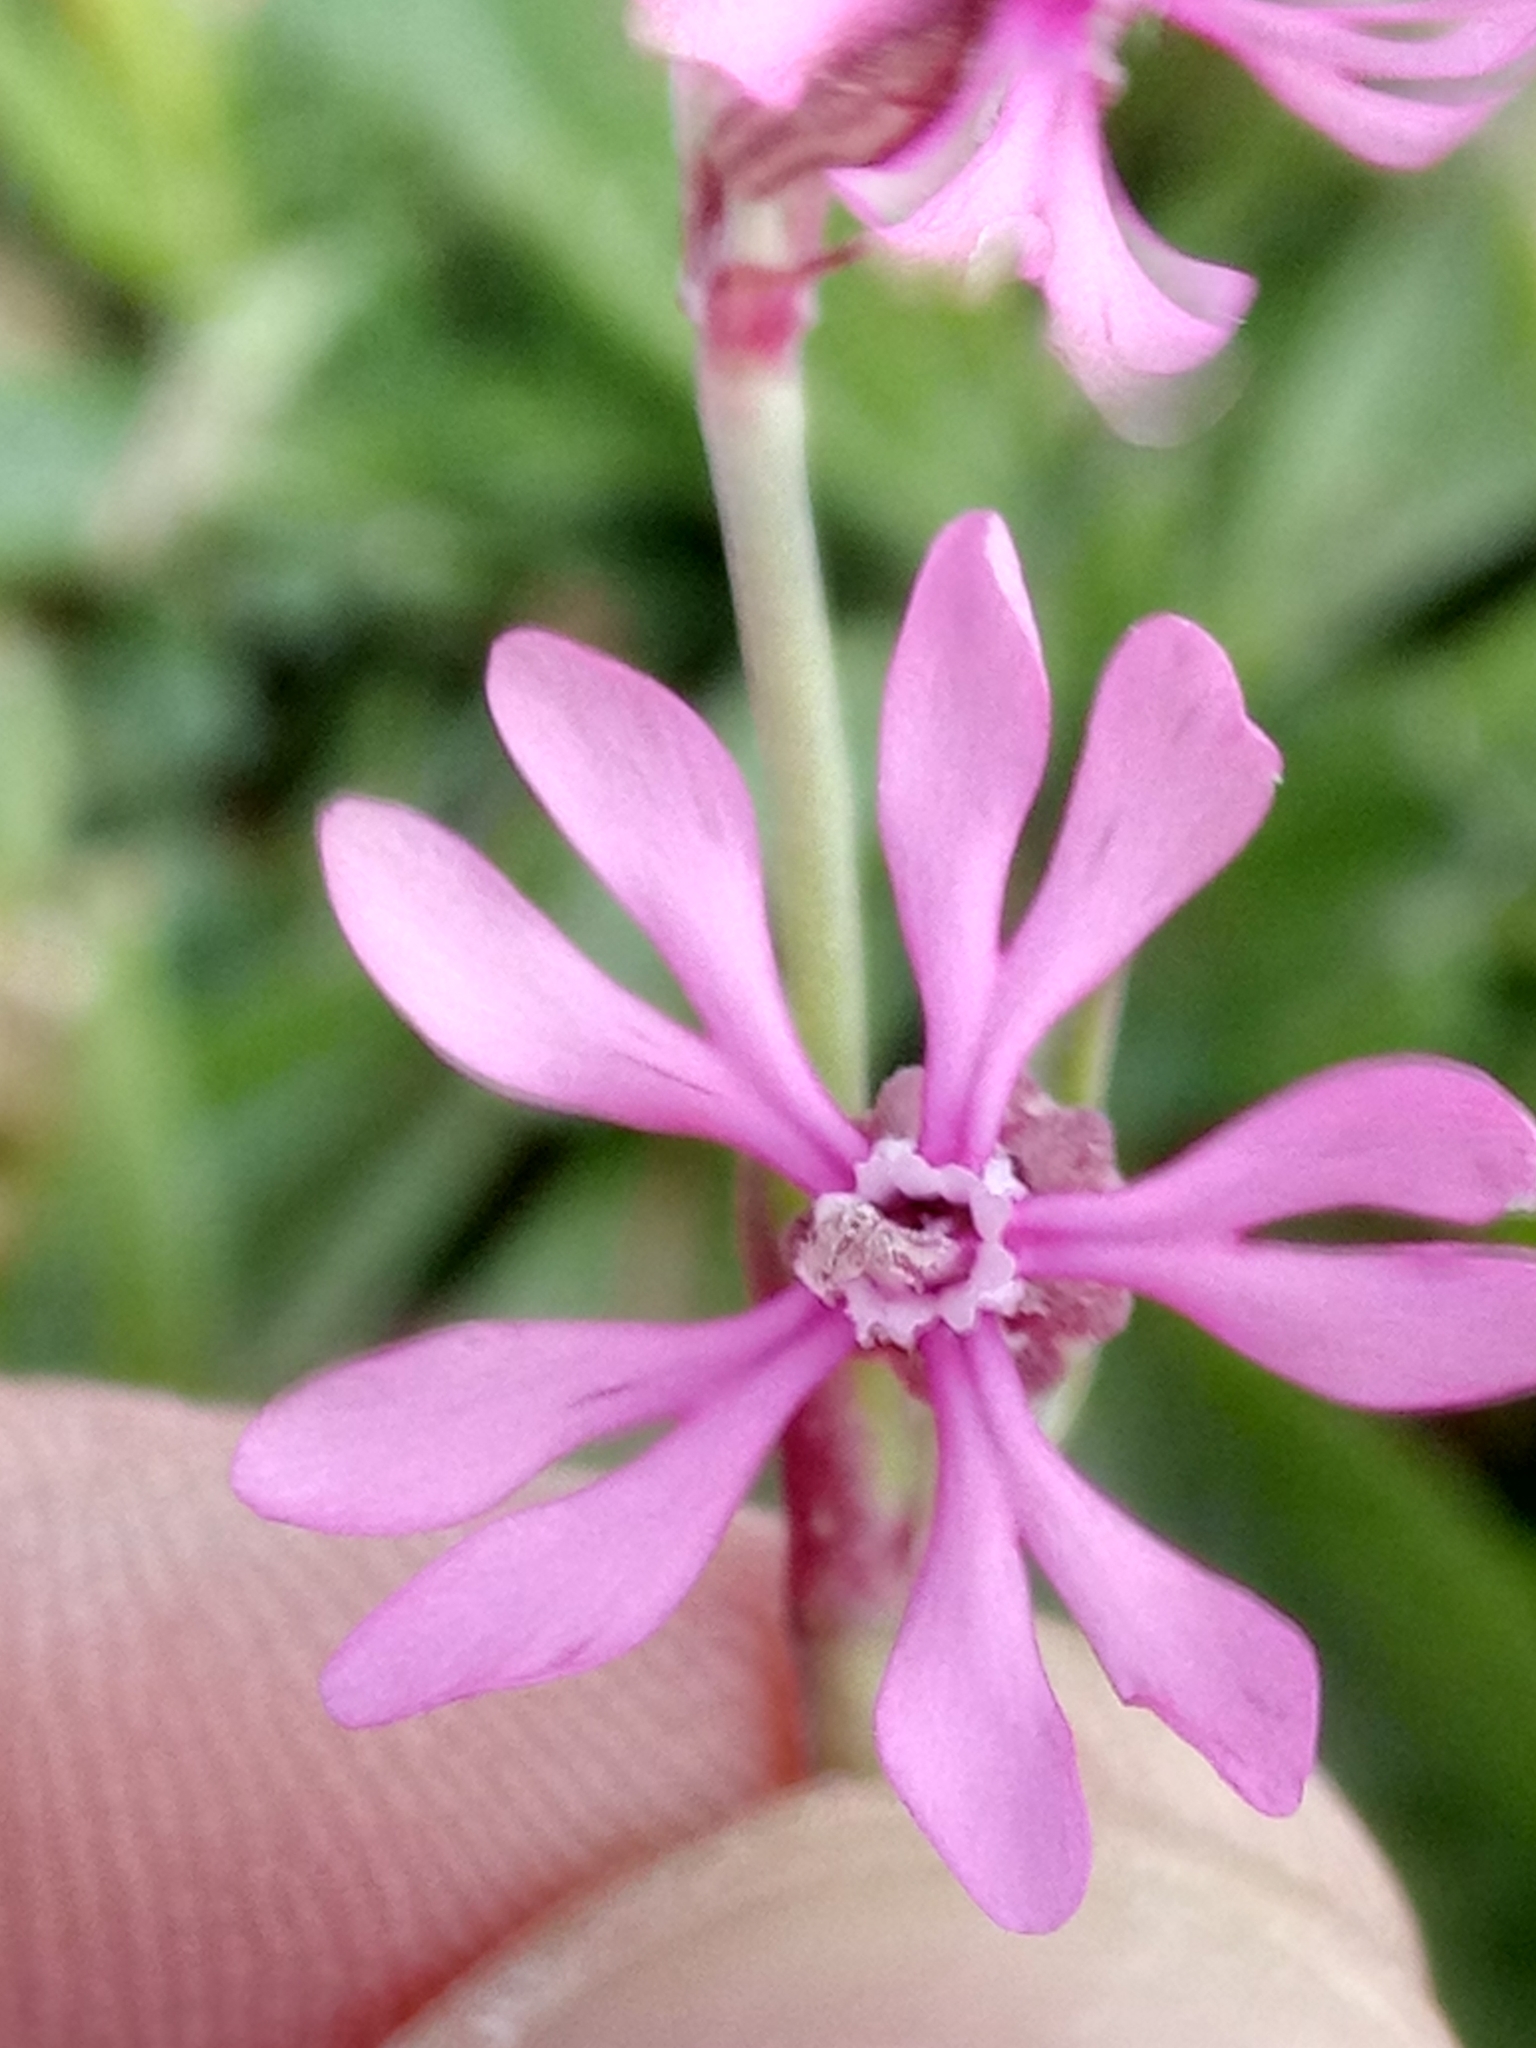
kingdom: Plantae
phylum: Tracheophyta
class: Magnoliopsida
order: Caryophyllales
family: Caryophyllaceae
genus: Silene
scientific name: Silene colorata
